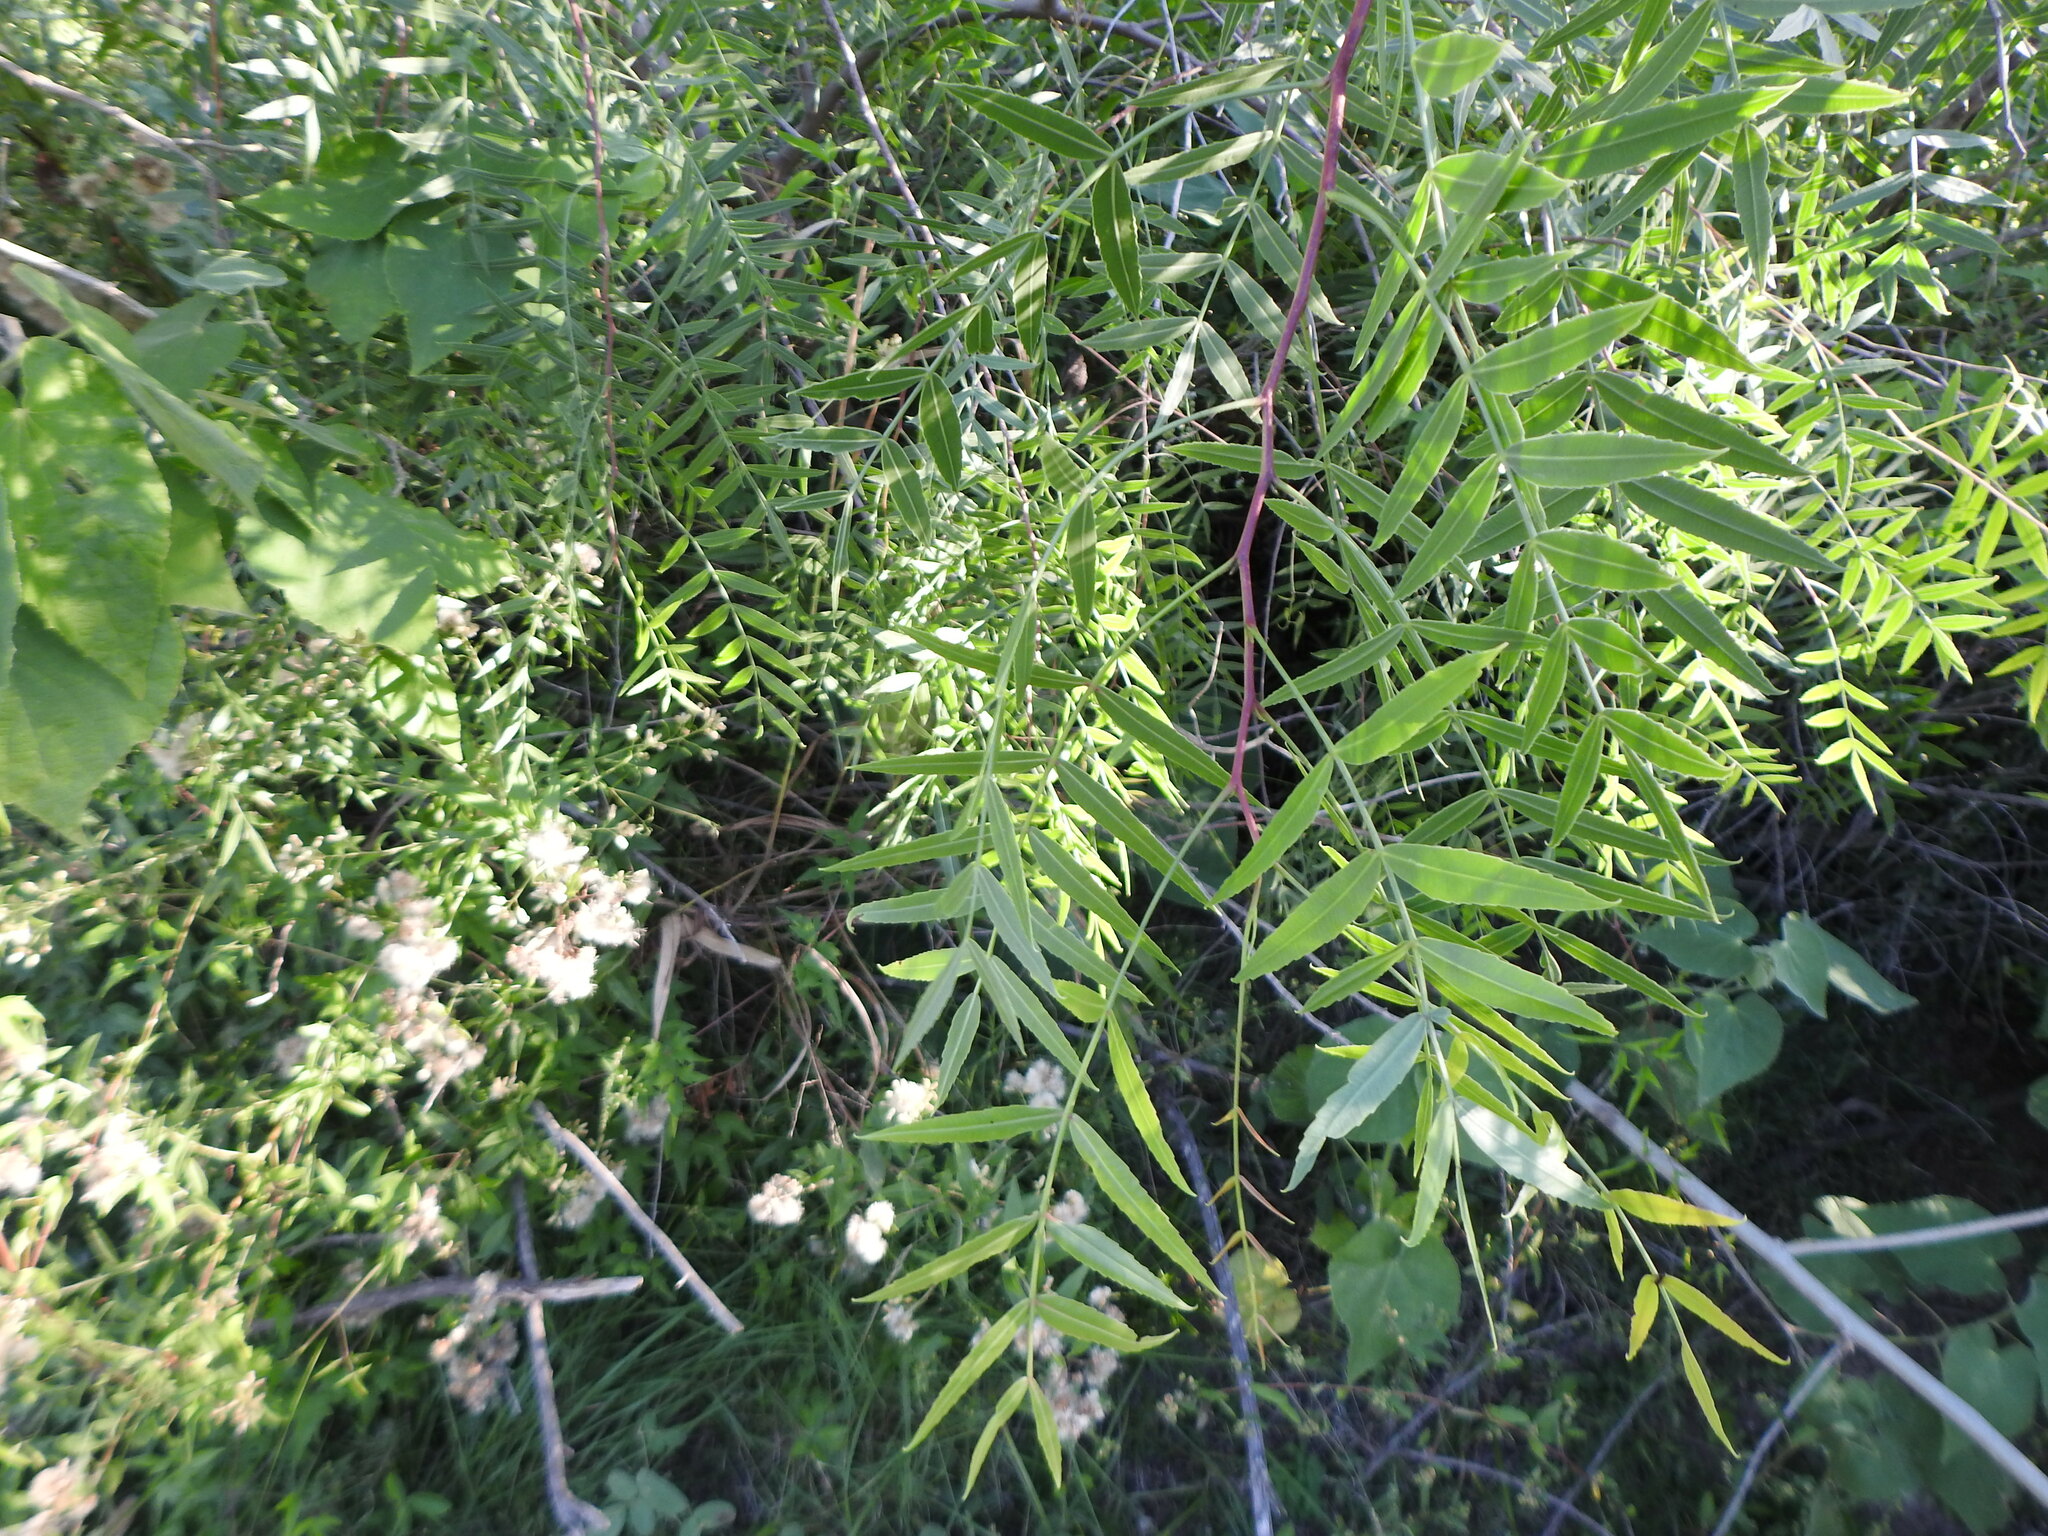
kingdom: Plantae
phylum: Tracheophyta
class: Magnoliopsida
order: Sapindales
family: Anacardiaceae
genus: Schinus
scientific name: Schinus molle
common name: Peruvian peppertree
